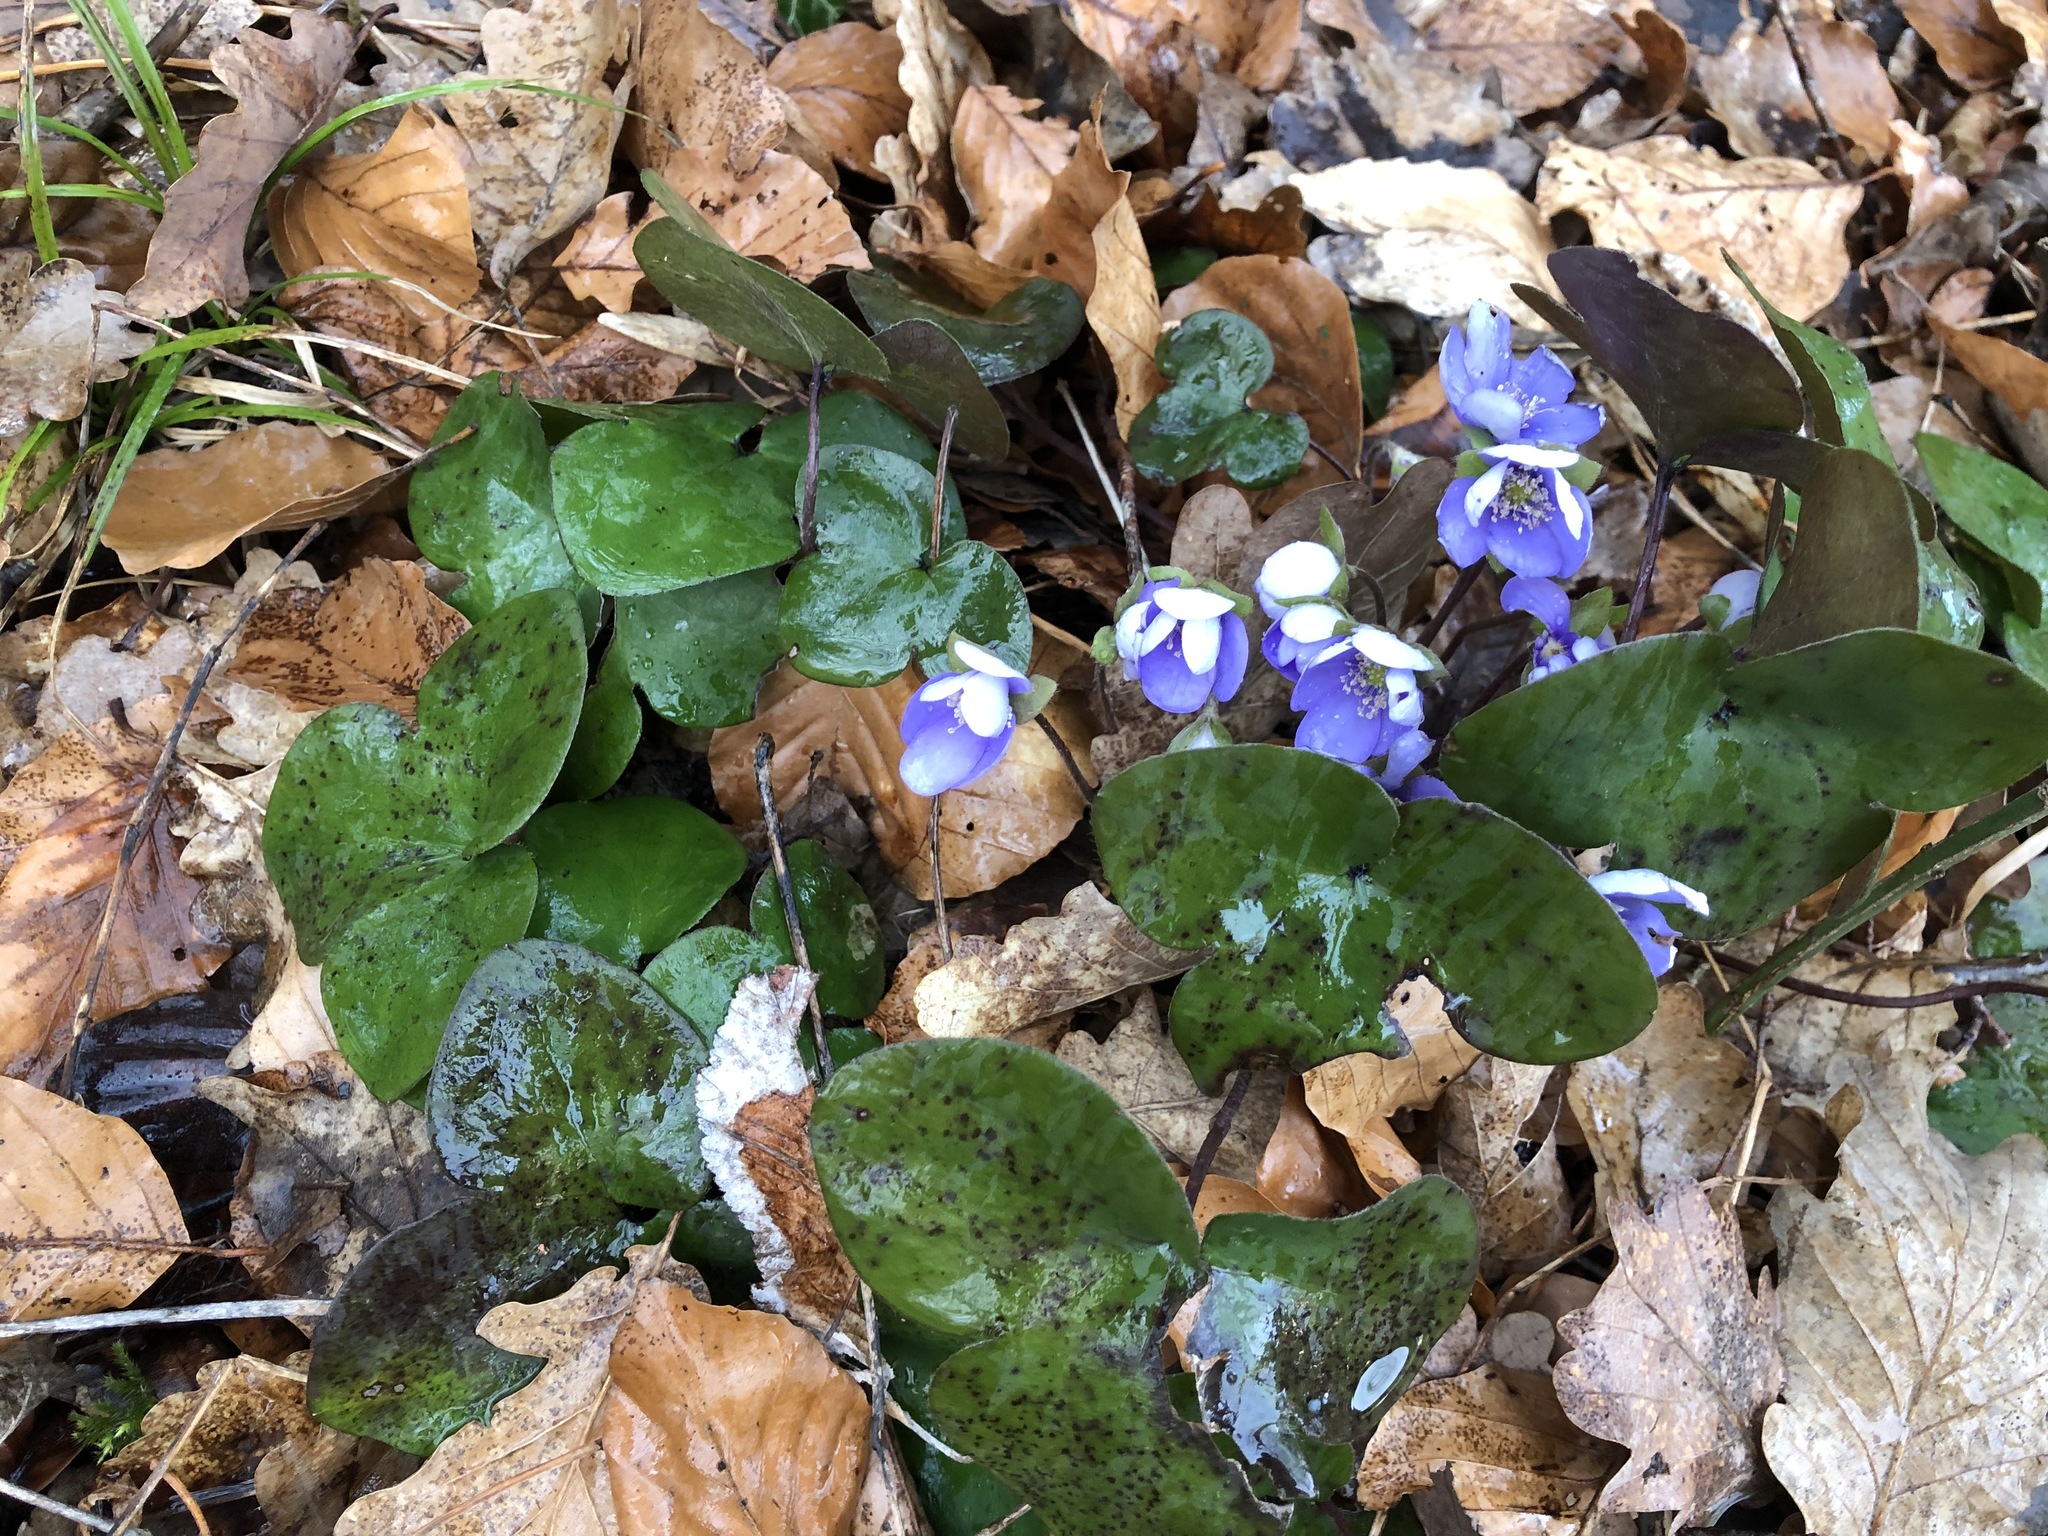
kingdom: Plantae
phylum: Tracheophyta
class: Magnoliopsida
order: Ranunculales
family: Ranunculaceae
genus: Hepatica
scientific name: Hepatica nobilis
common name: Liverleaf
